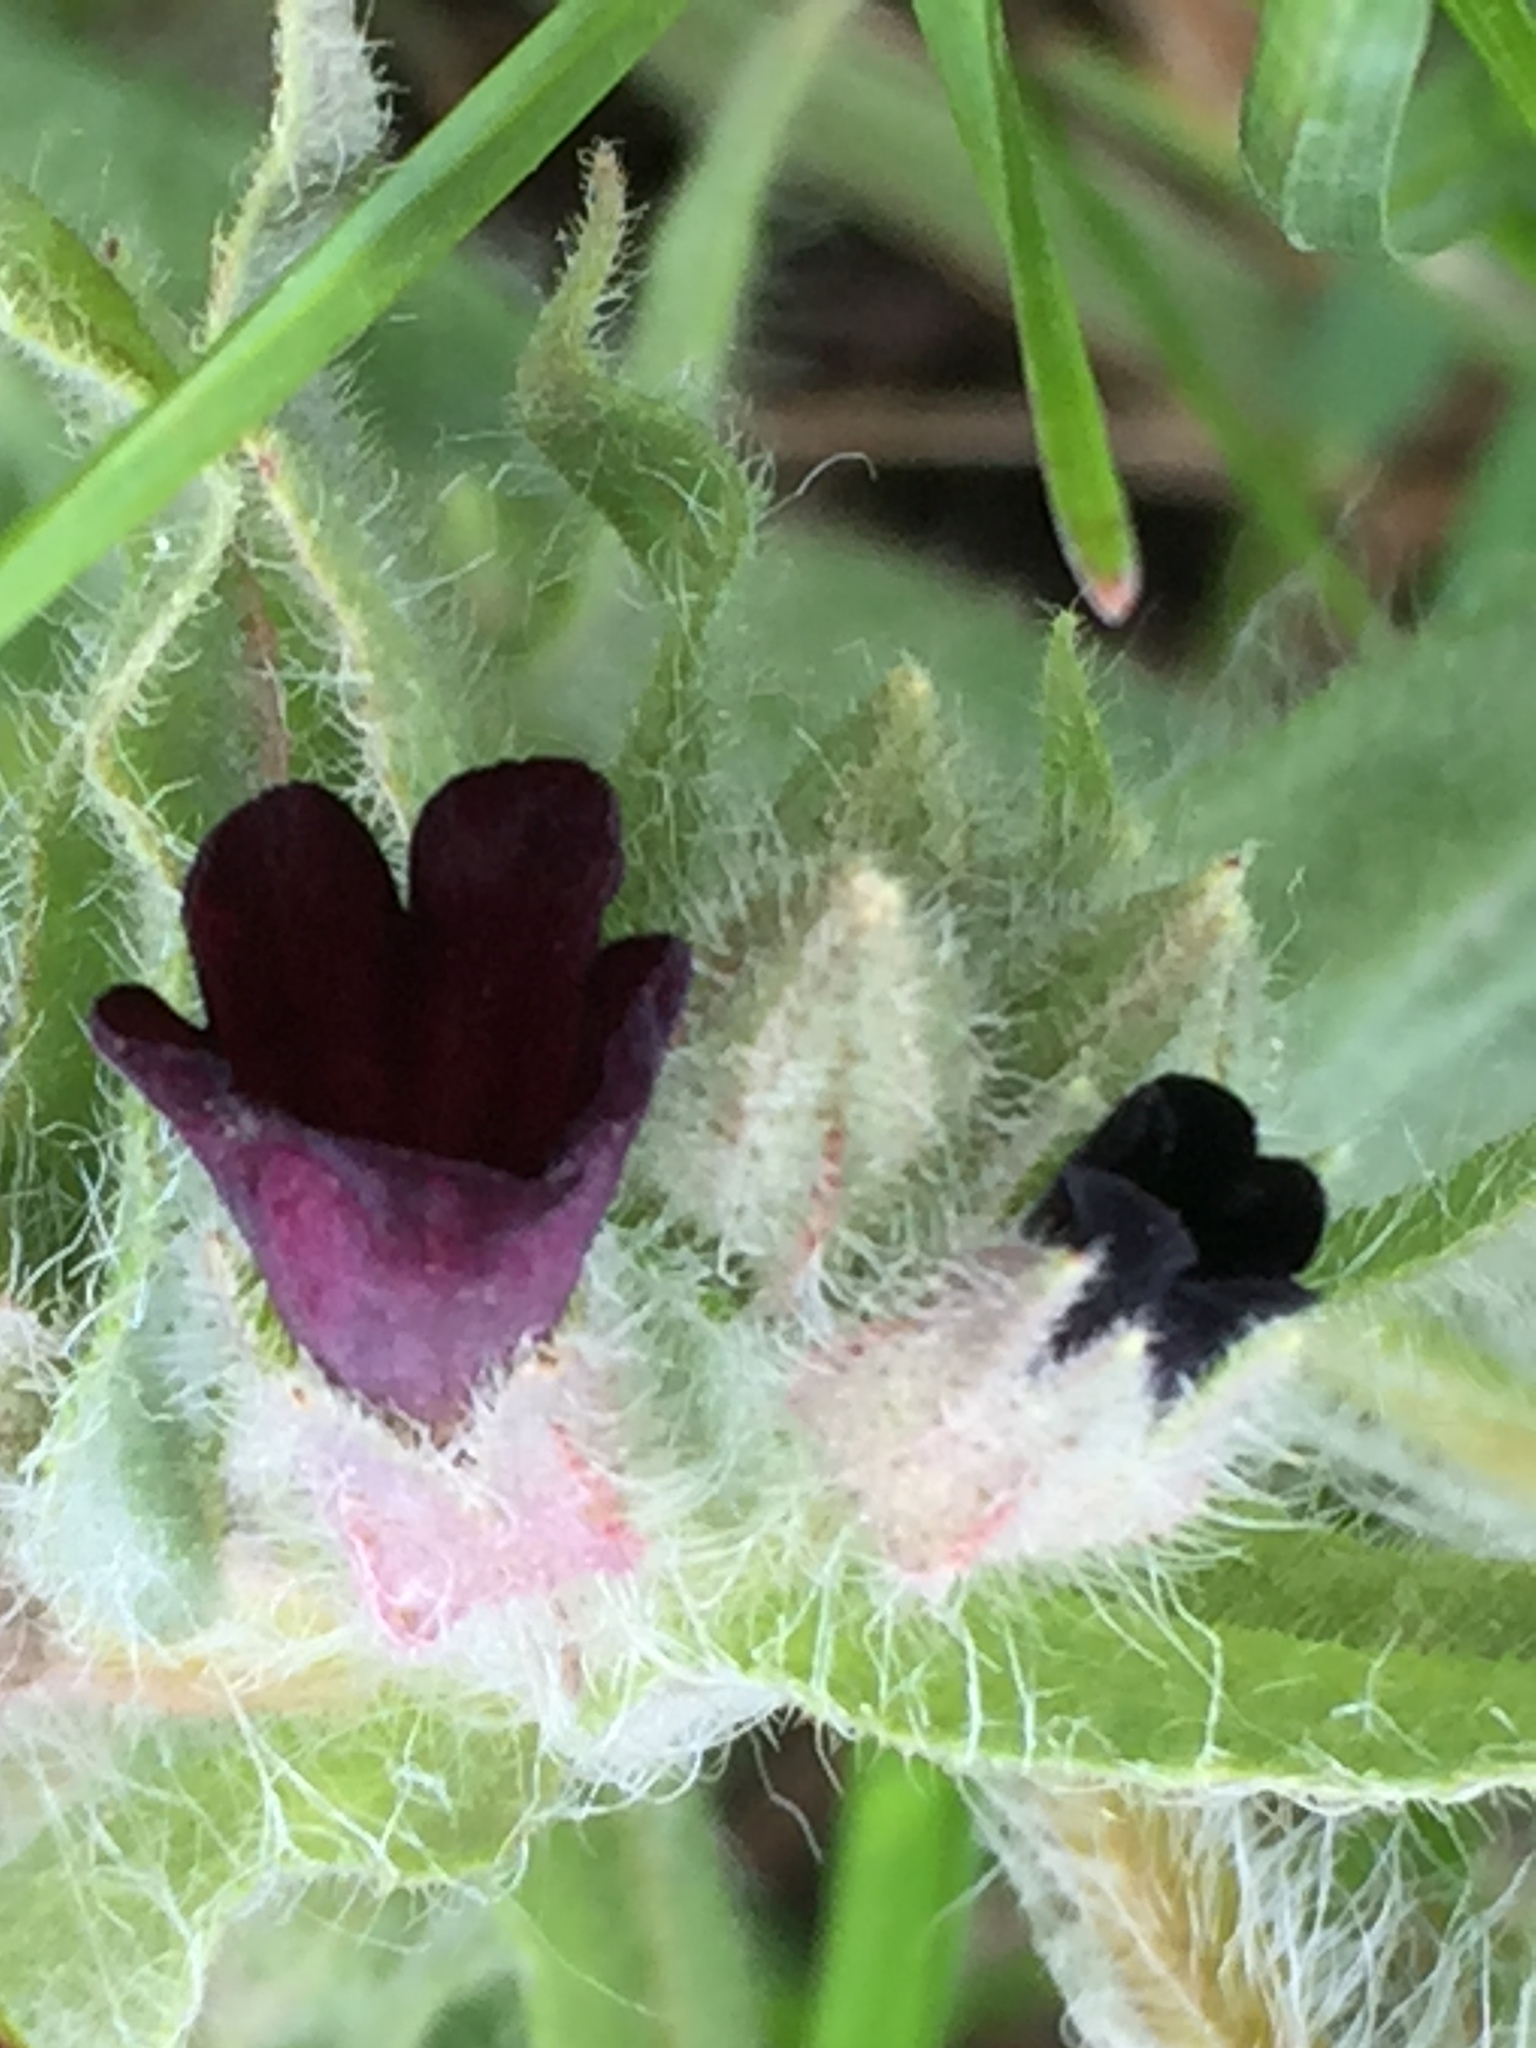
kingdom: Plantae
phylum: Tracheophyta
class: Magnoliopsida
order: Boraginales
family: Boraginaceae
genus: Nonea
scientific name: Nonea pulla
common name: Brown nonea
